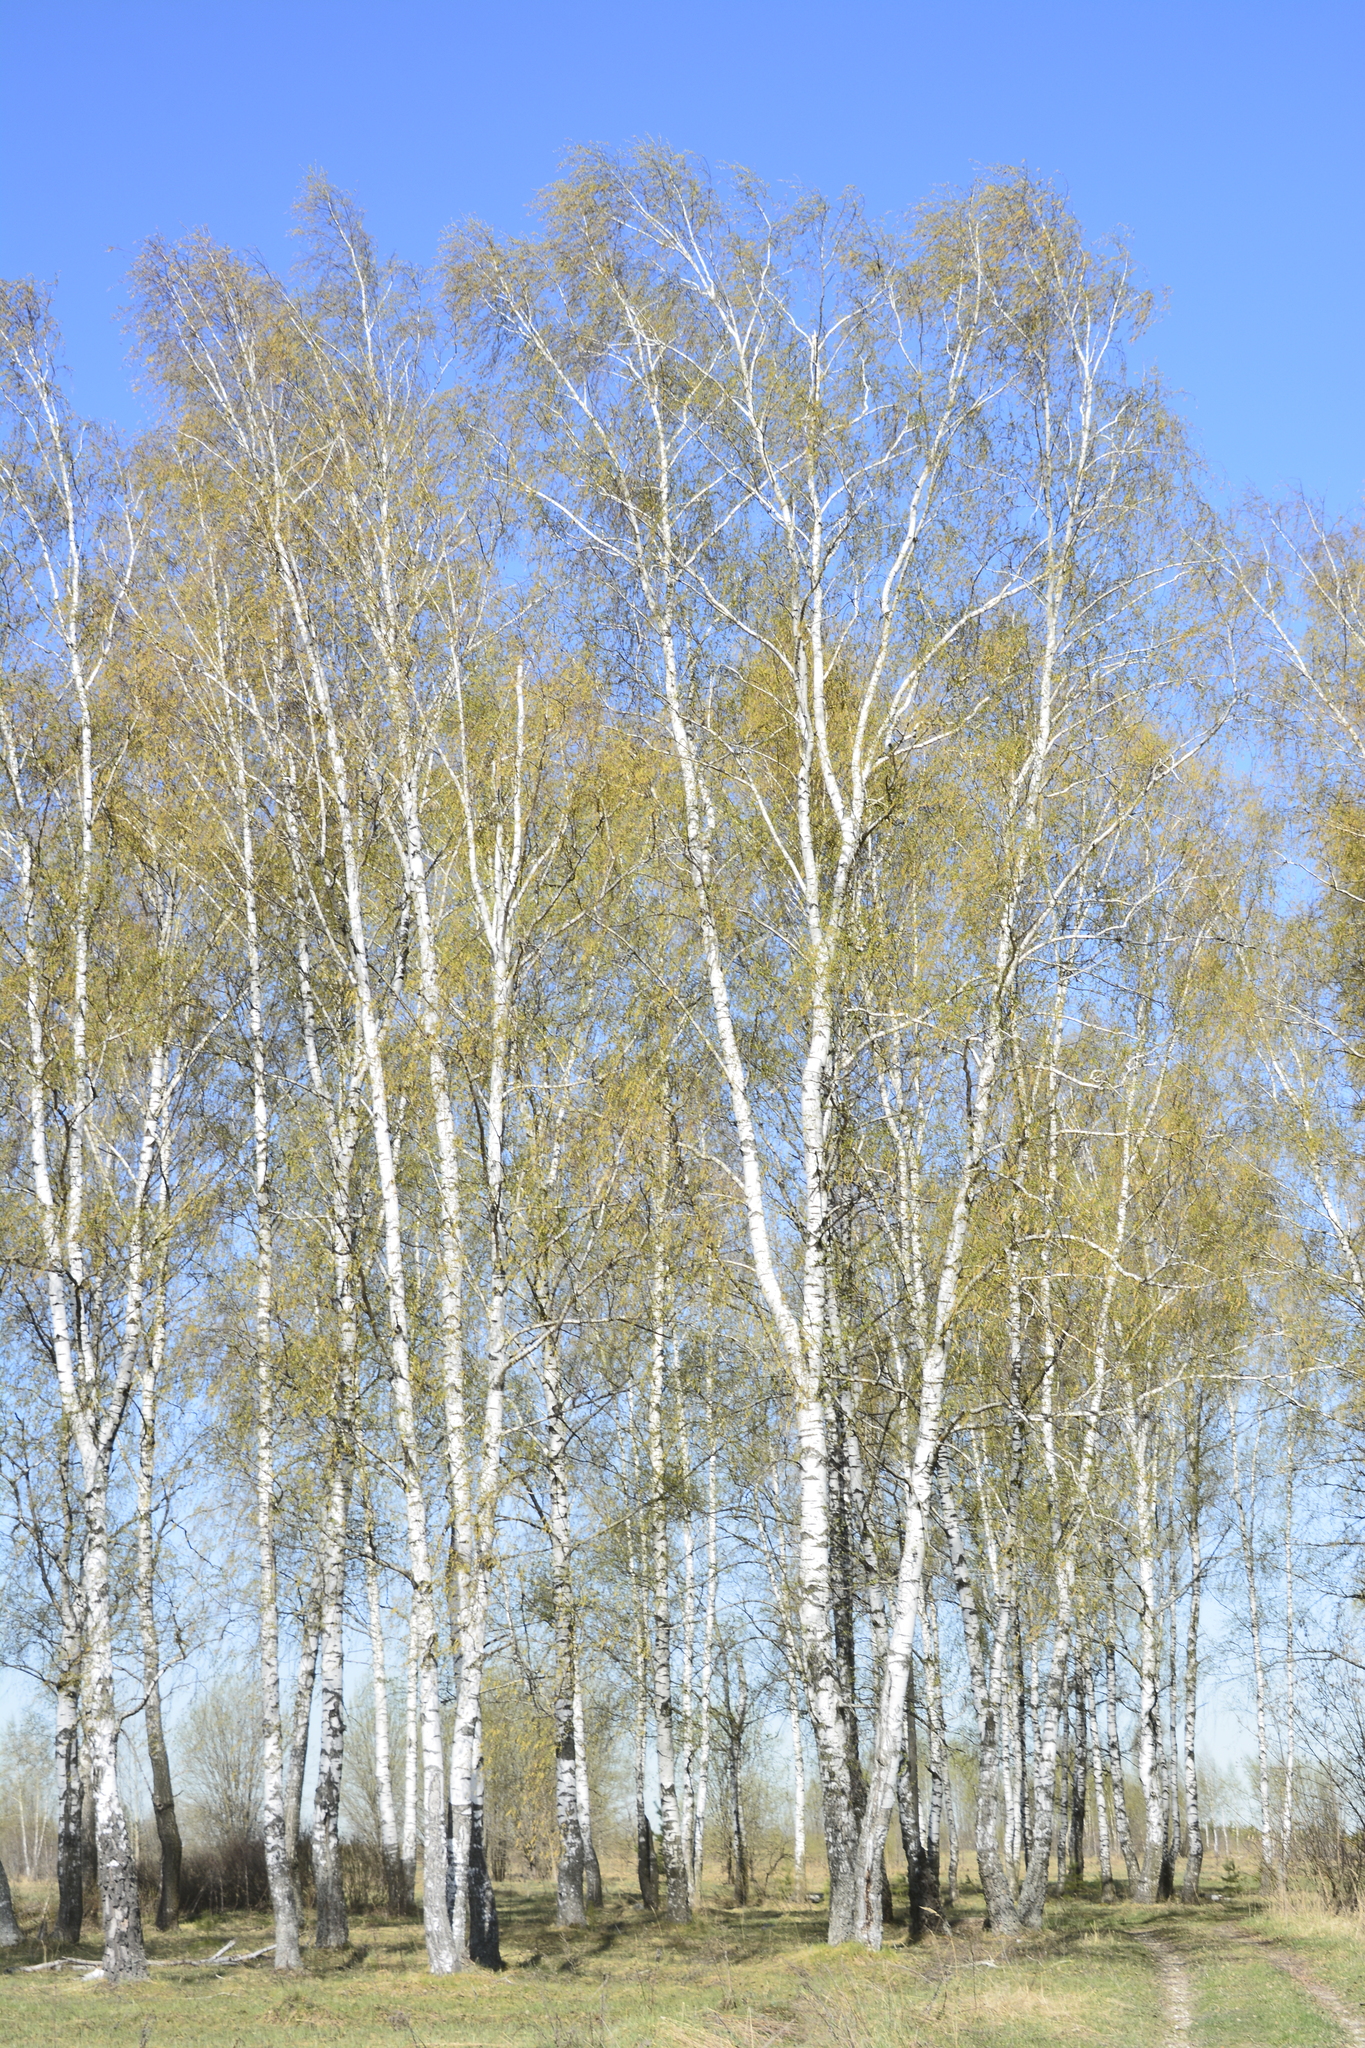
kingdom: Plantae
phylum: Tracheophyta
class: Magnoliopsida
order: Fagales
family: Betulaceae
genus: Betula
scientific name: Betula pendula
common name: Silver birch
